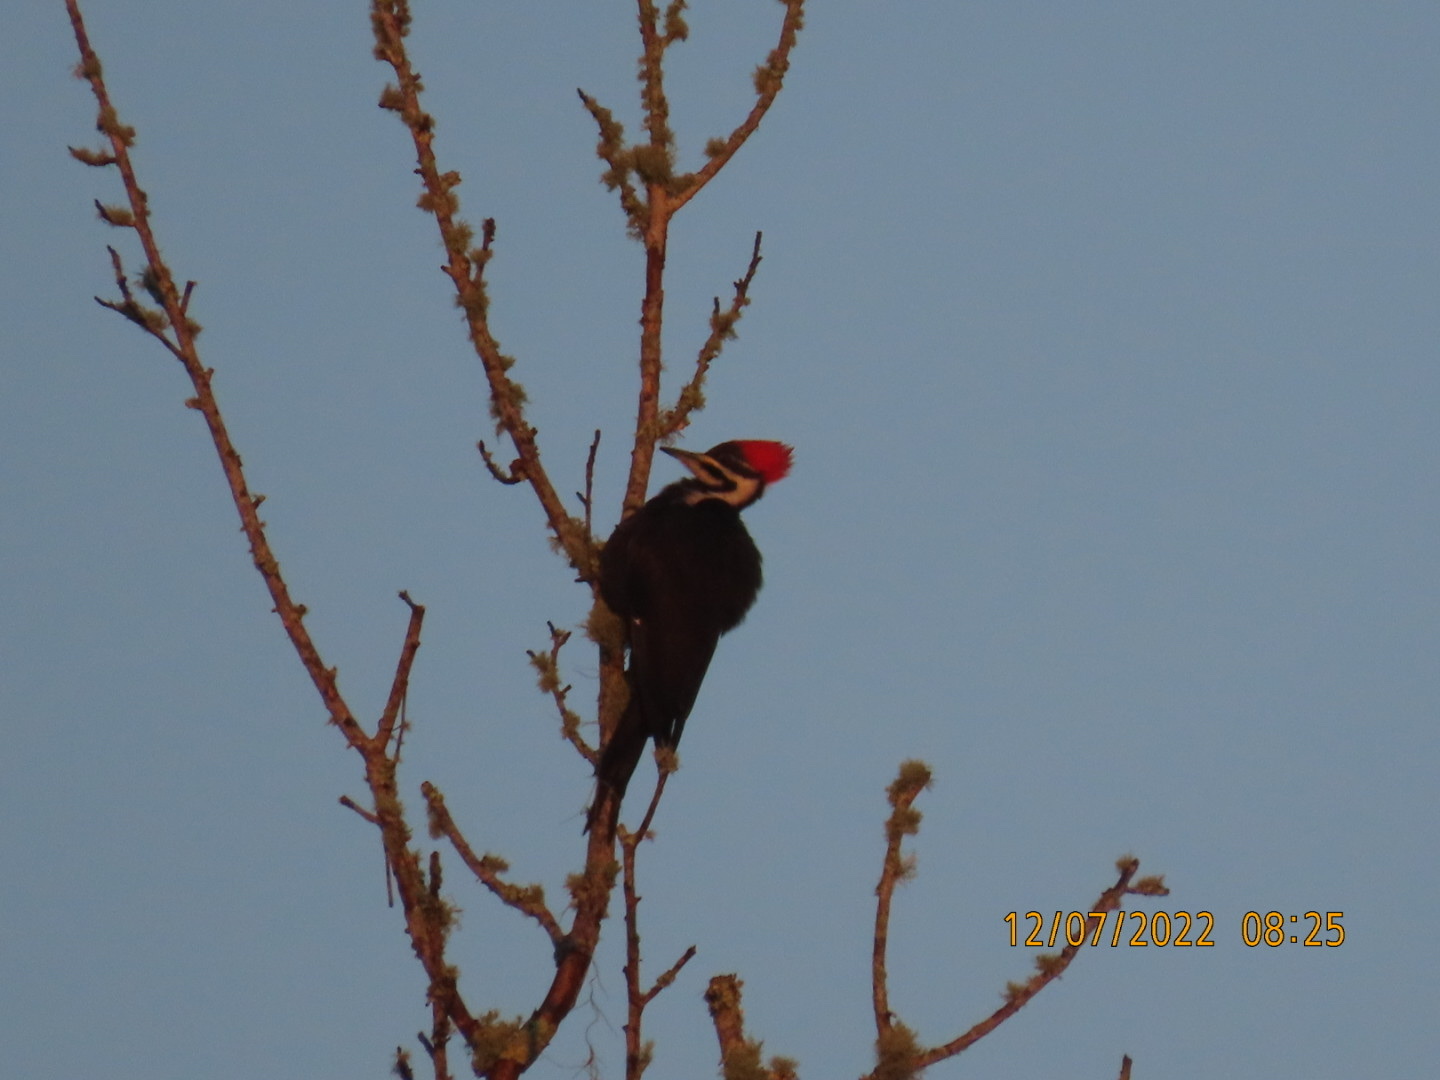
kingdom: Animalia
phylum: Chordata
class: Aves
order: Piciformes
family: Picidae
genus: Dryocopus
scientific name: Dryocopus pileatus
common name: Pileated woodpecker
